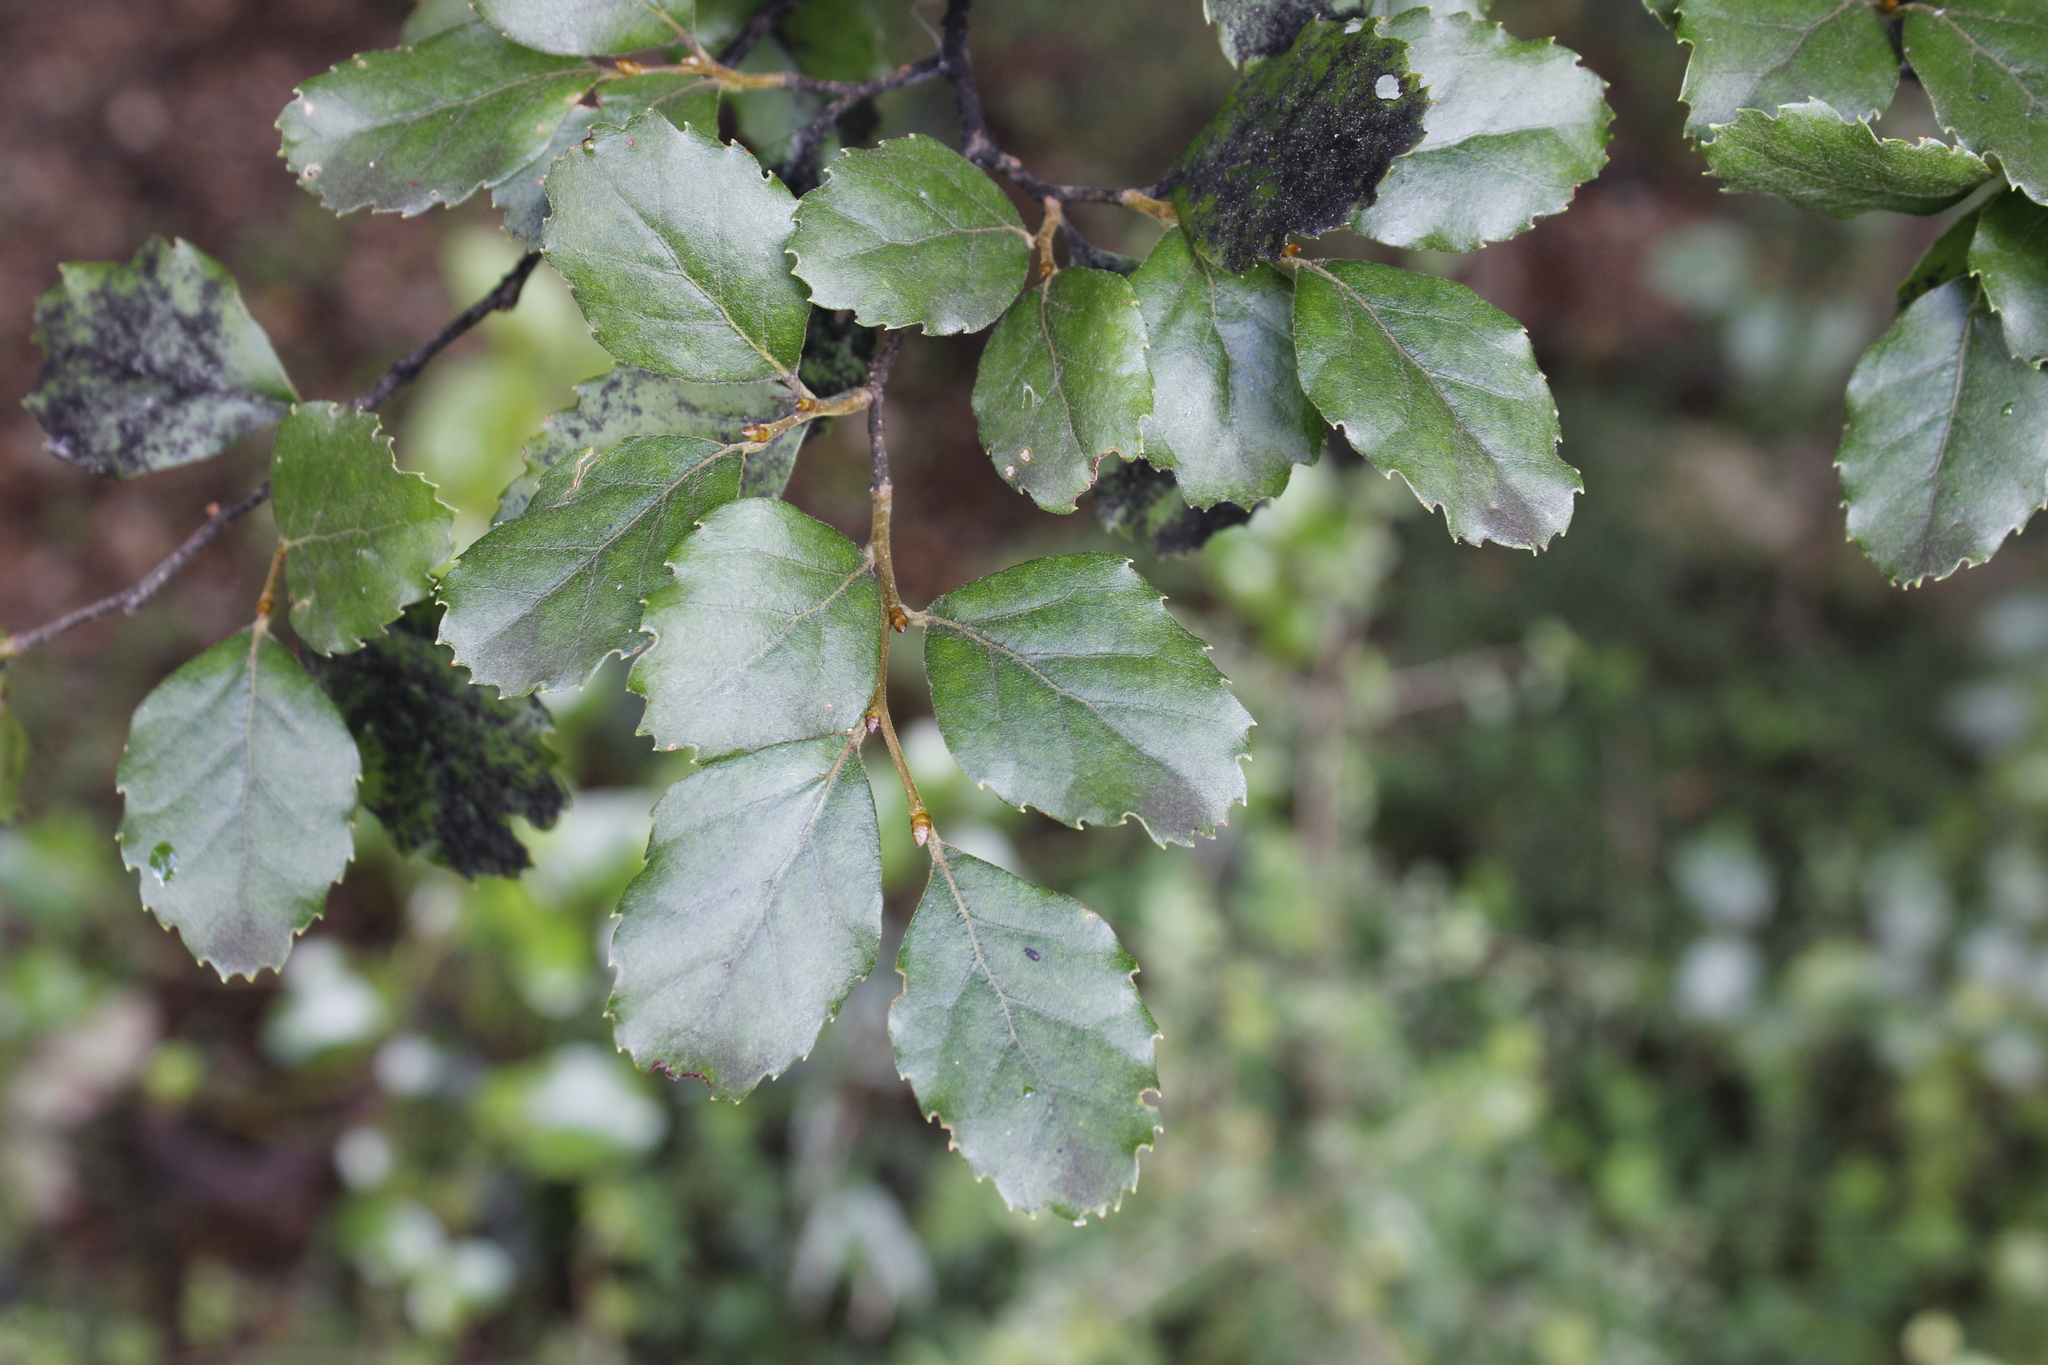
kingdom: Plantae
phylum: Tracheophyta
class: Magnoliopsida
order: Fagales
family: Nothofagaceae
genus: Nothofagus
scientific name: Nothofagus fusca
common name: Red beech
